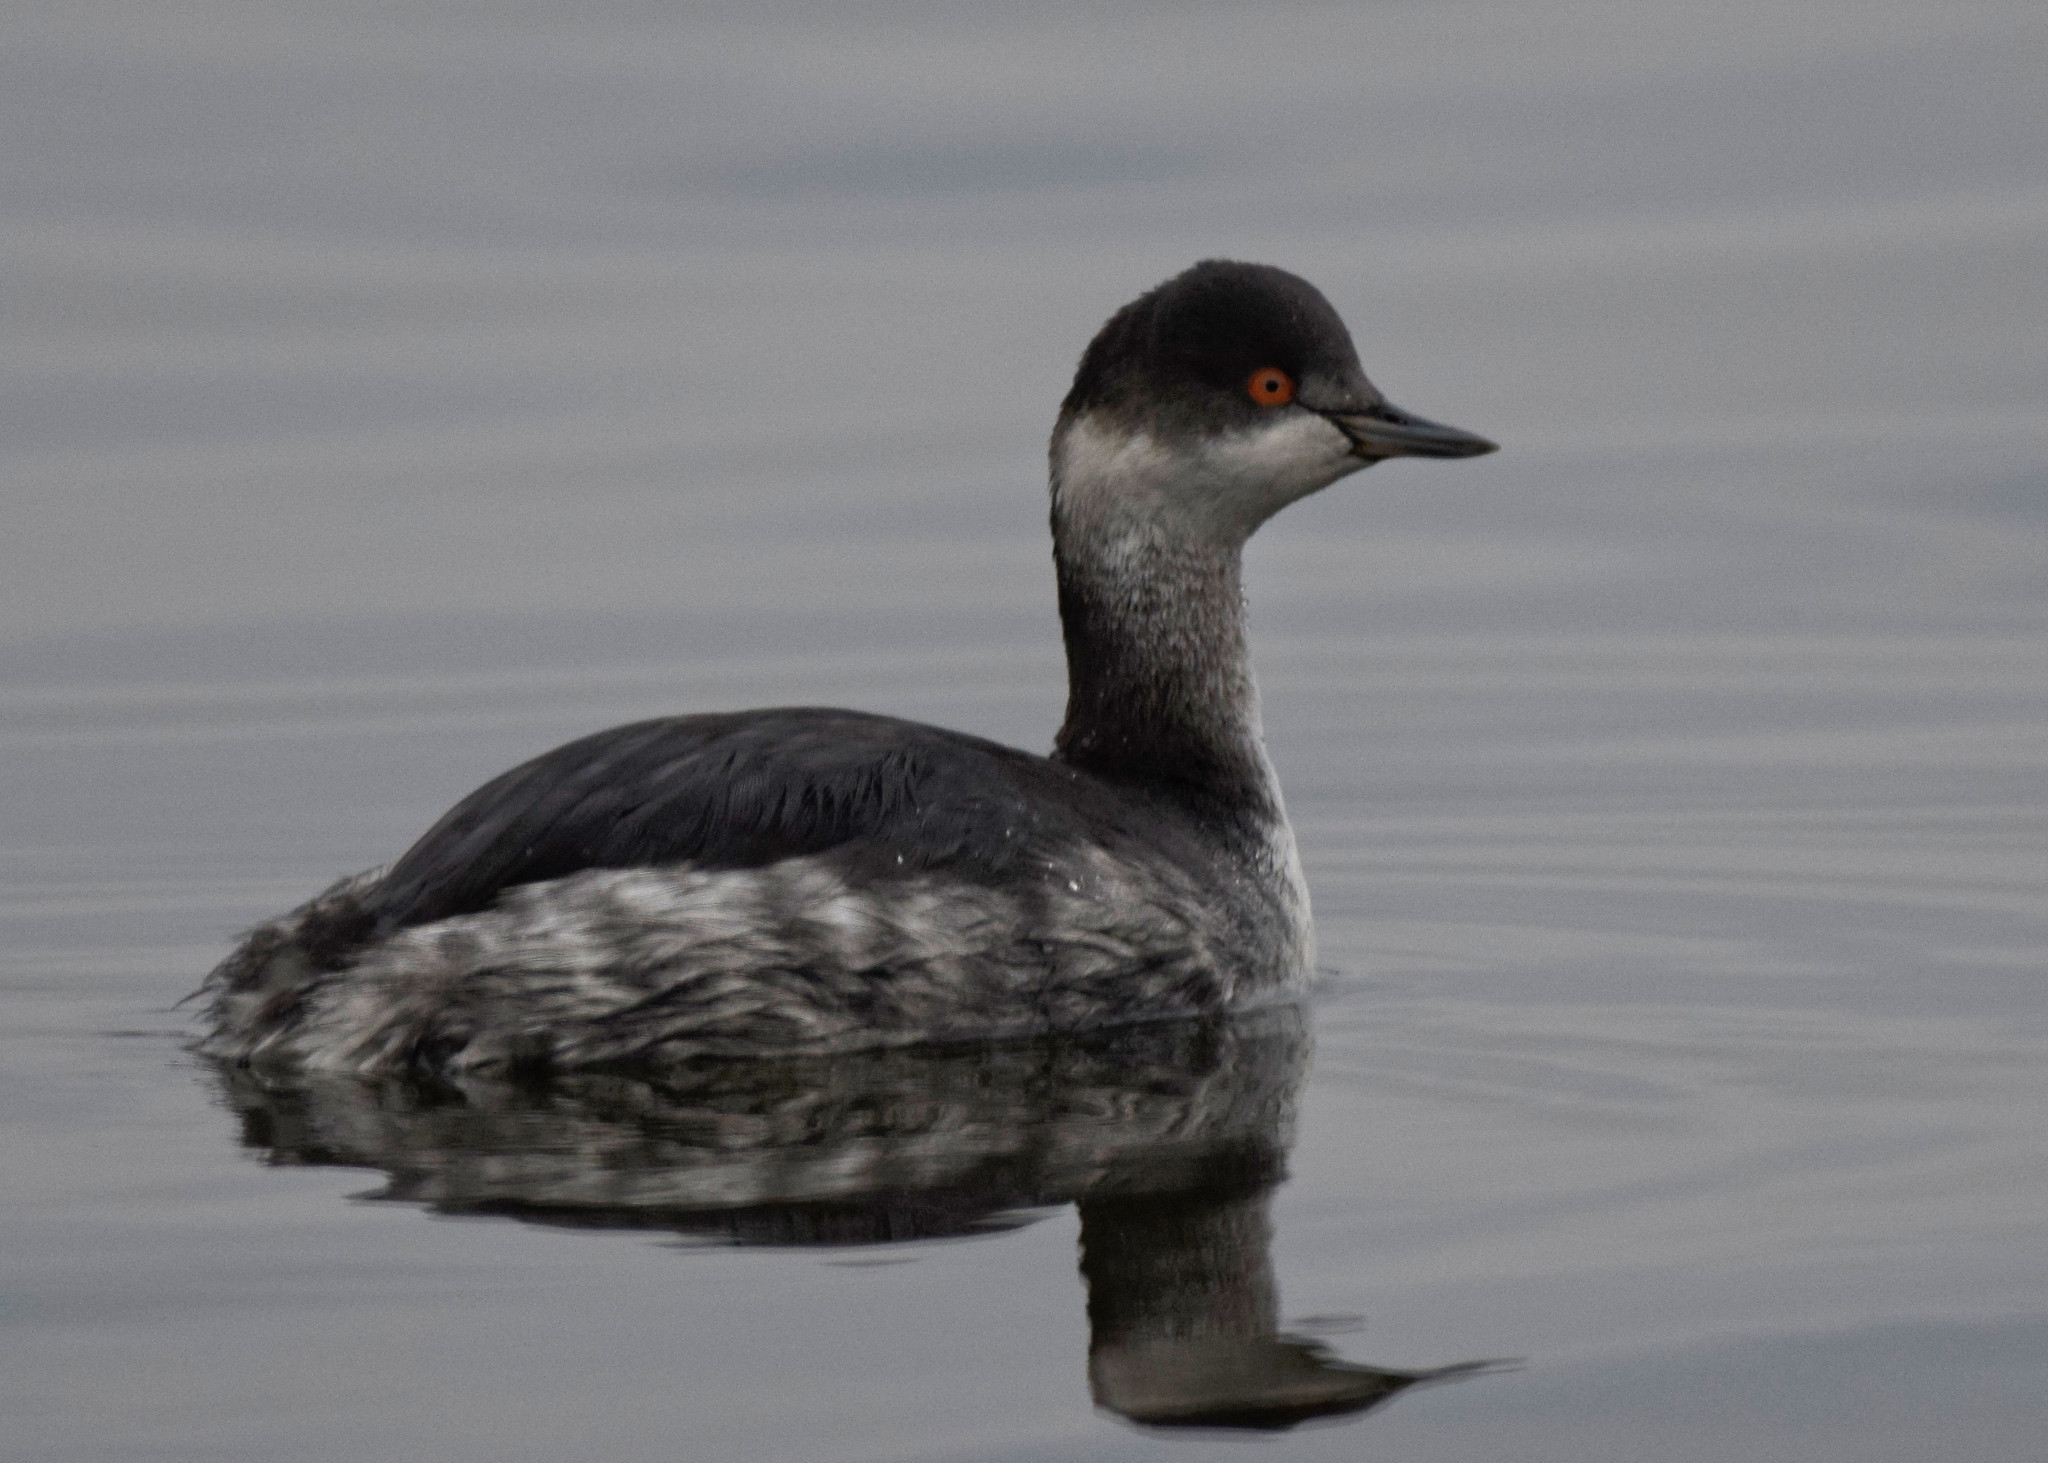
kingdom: Animalia
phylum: Chordata
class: Aves
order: Podicipediformes
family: Podicipedidae
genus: Podiceps
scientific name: Podiceps nigricollis
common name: Black-necked grebe
